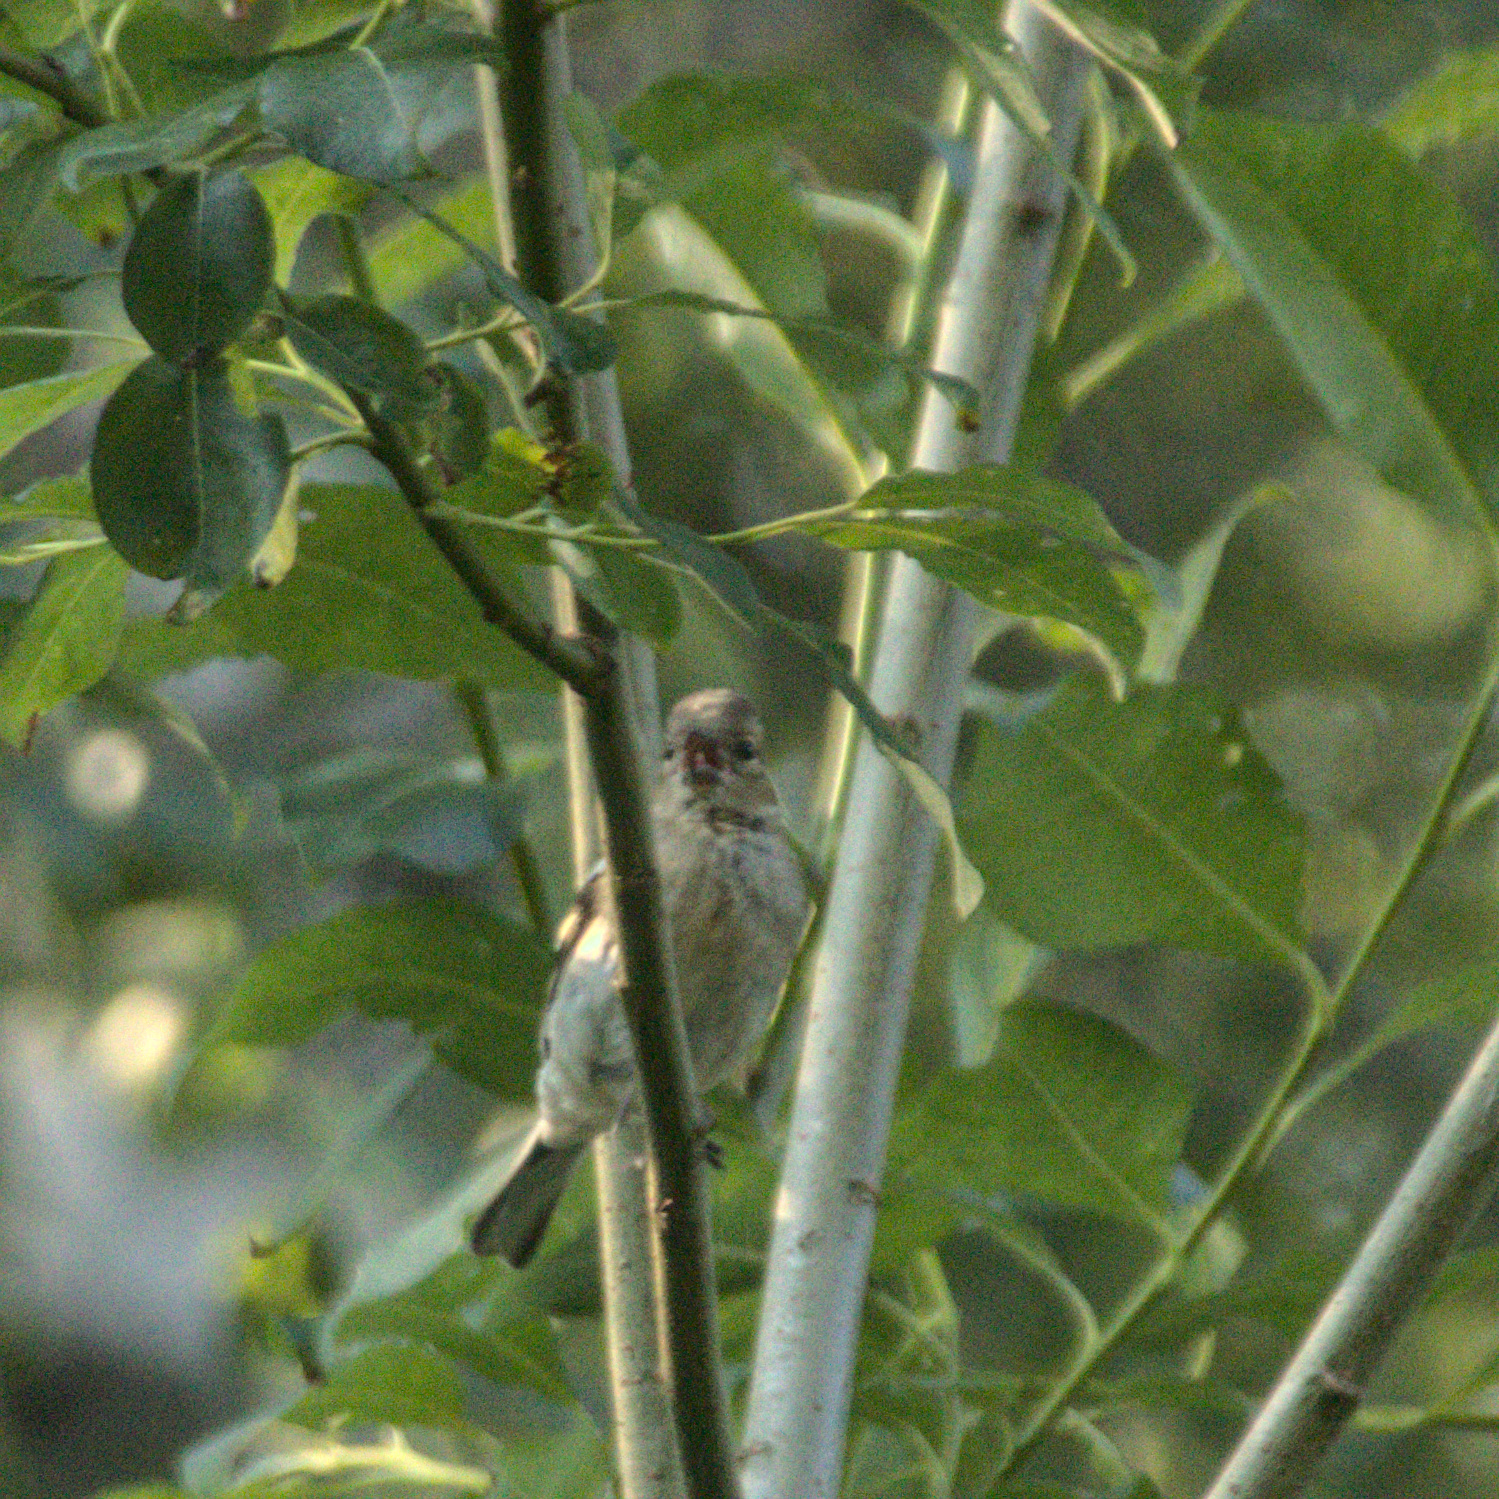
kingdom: Animalia
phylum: Chordata
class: Aves
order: Passeriformes
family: Fringillidae
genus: Fringilla
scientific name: Fringilla coelebs
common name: Common chaffinch
